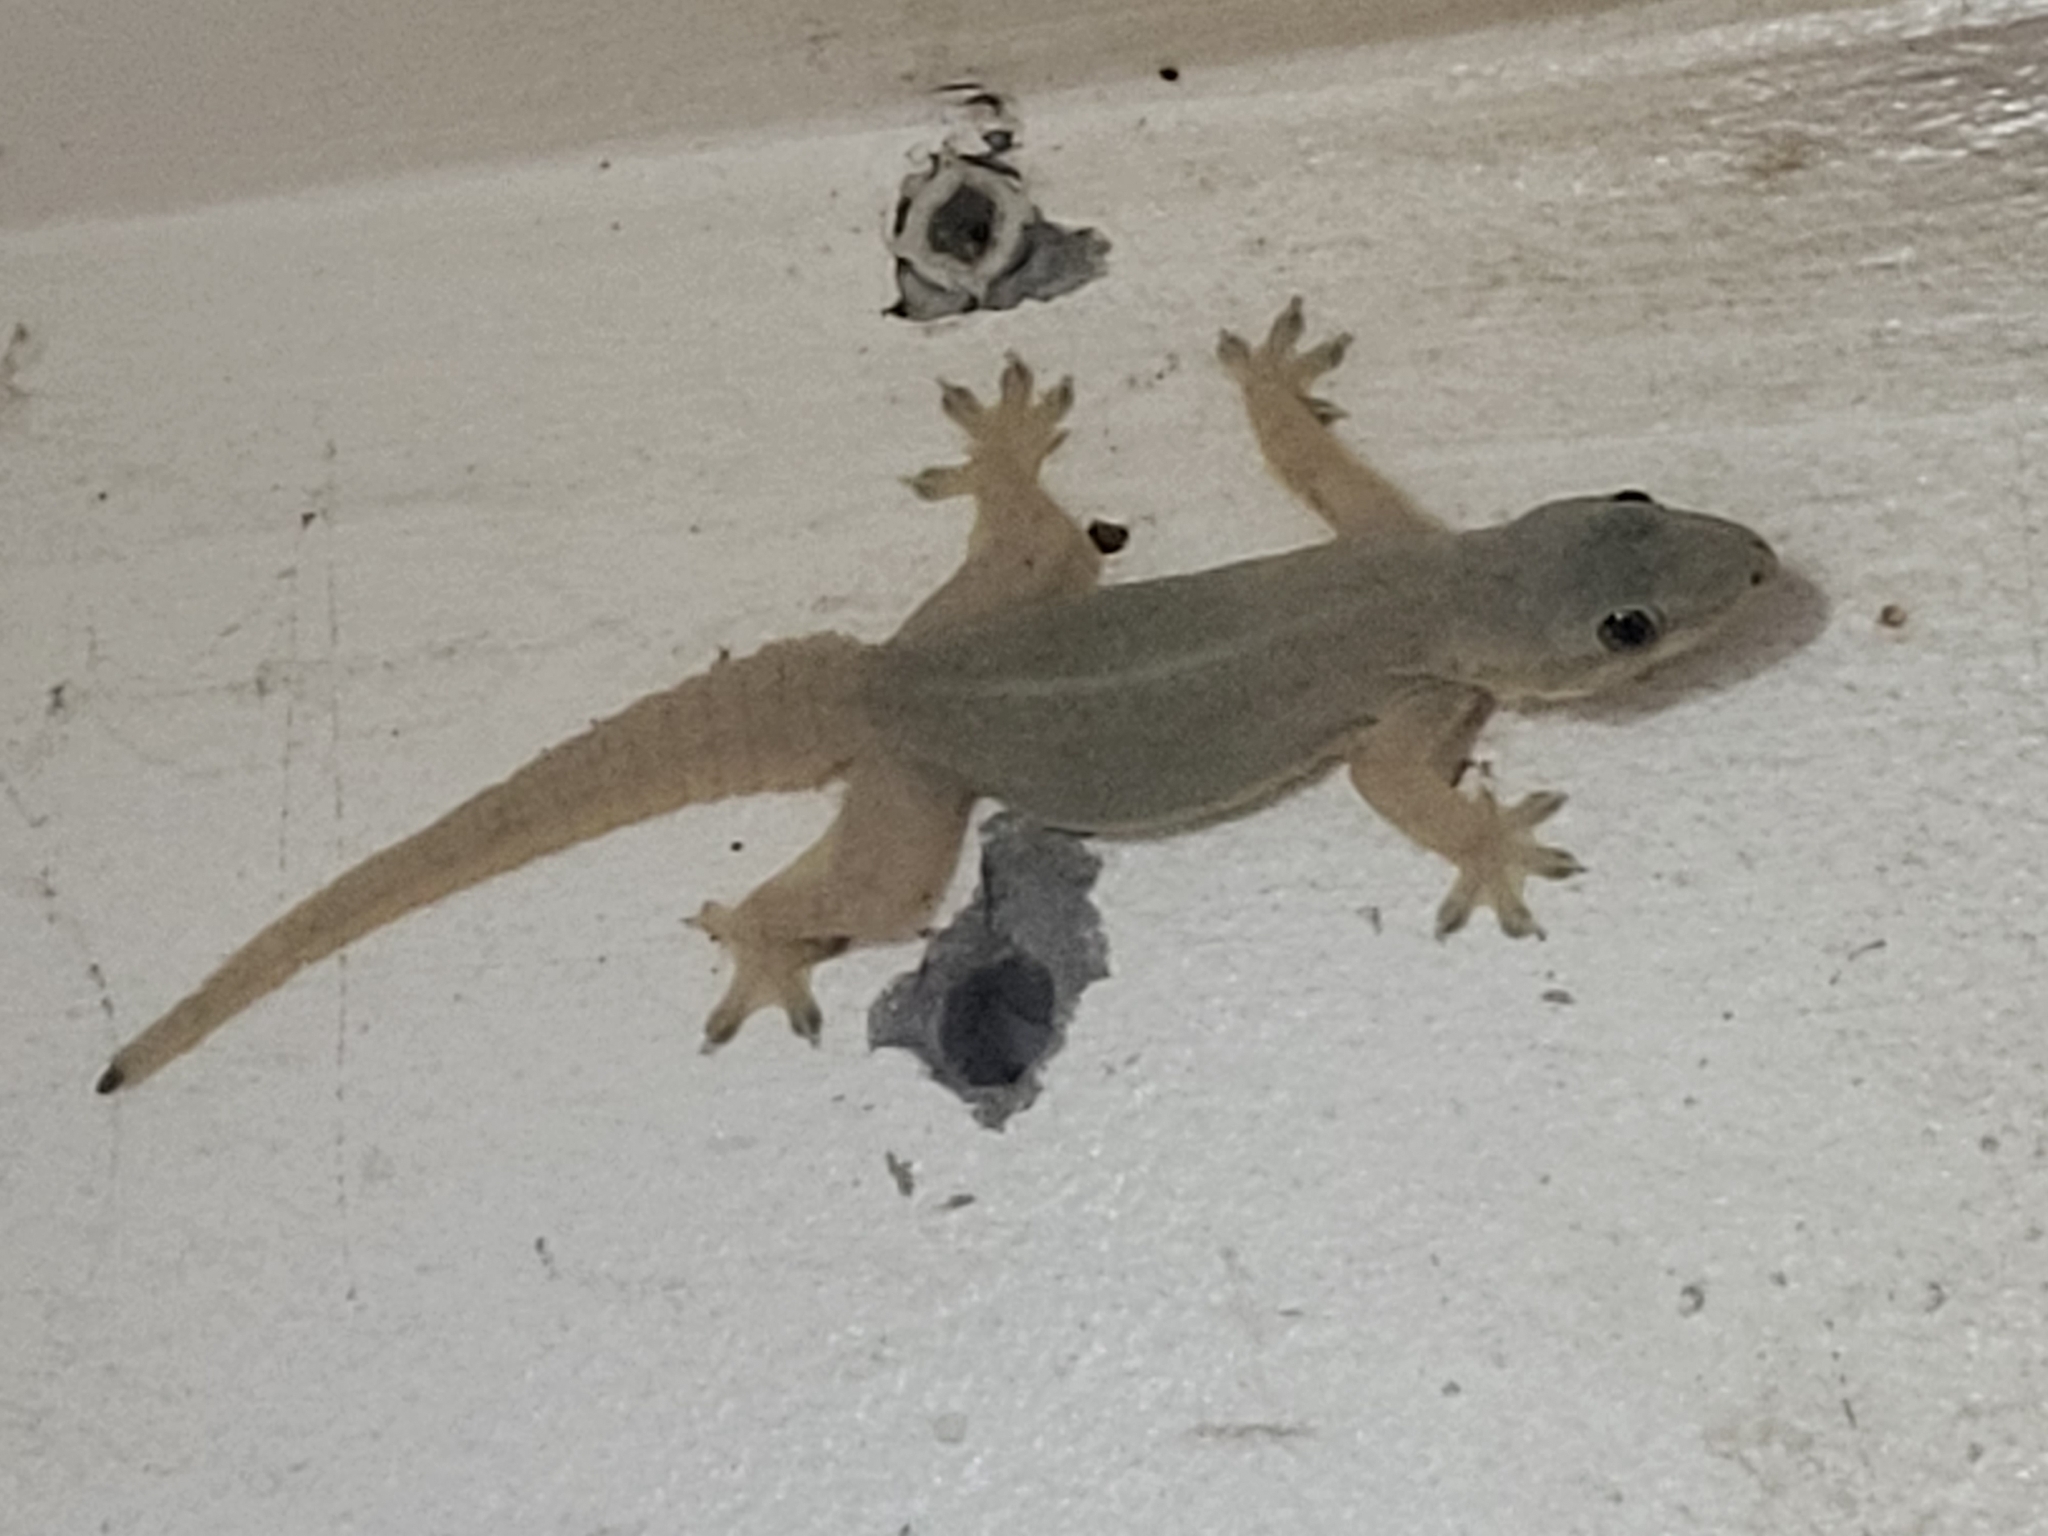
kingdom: Animalia
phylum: Chordata
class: Squamata
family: Gekkonidae
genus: Hemidactylus
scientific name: Hemidactylus platyurus
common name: Flat-tailed house gecko
